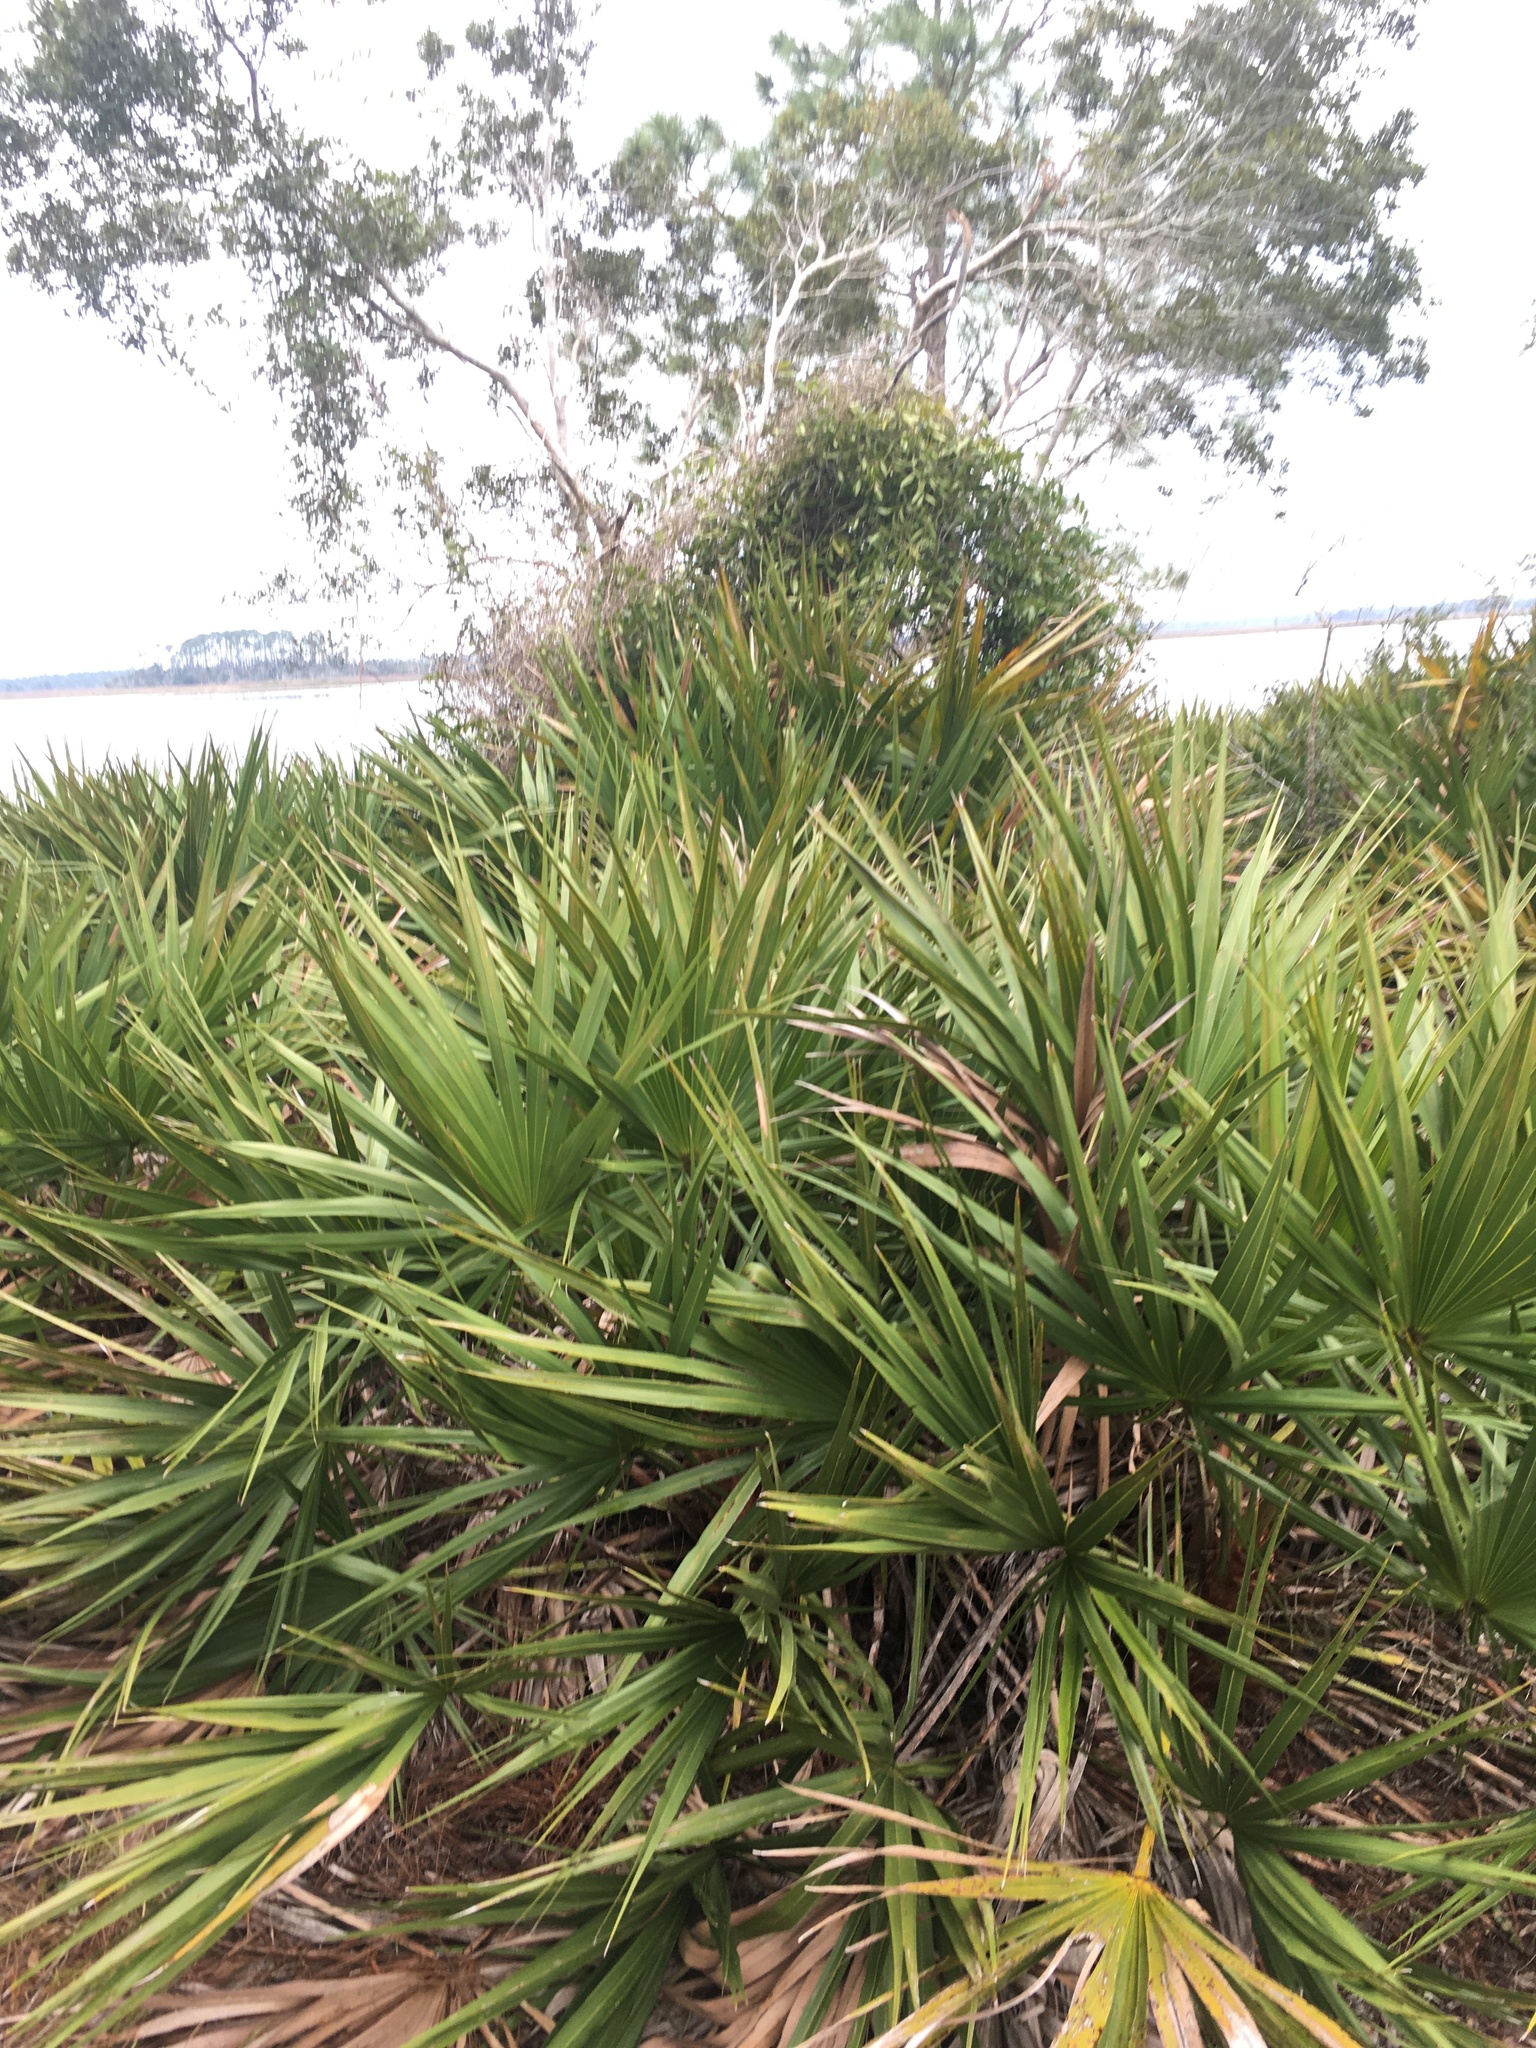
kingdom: Plantae
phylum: Tracheophyta
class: Liliopsida
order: Arecales
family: Arecaceae
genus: Serenoa
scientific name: Serenoa repens
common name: Saw-palmetto
